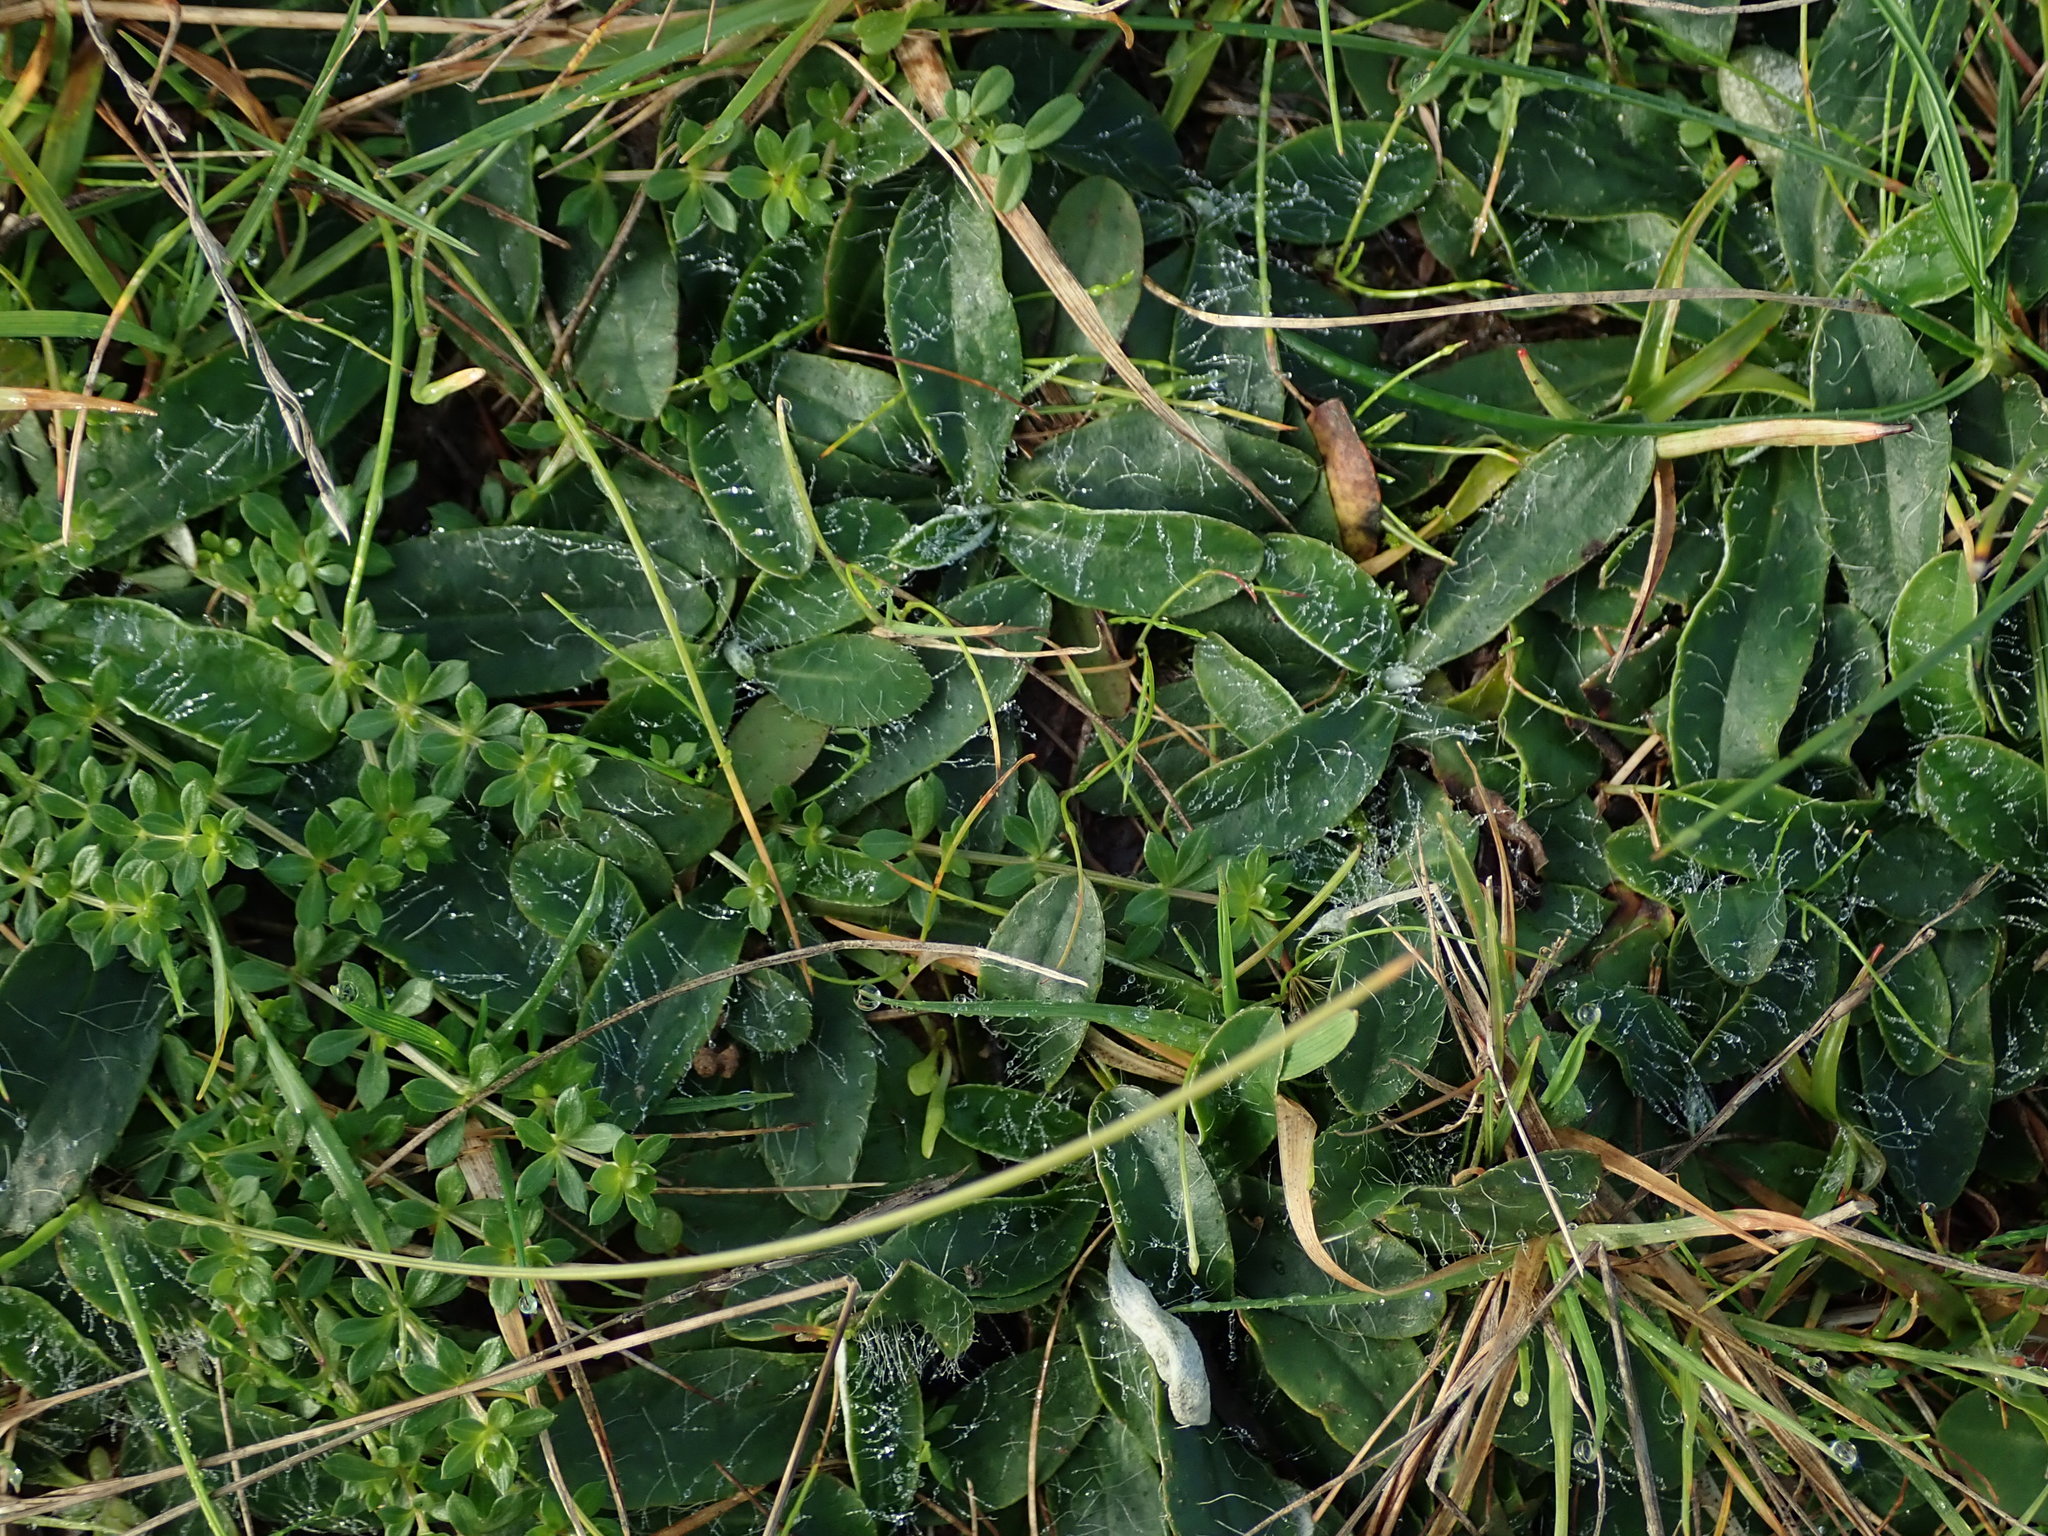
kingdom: Plantae
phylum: Tracheophyta
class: Magnoliopsida
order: Asterales
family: Asteraceae
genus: Pilosella
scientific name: Pilosella officinarum
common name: Mouse-ear hawkweed
